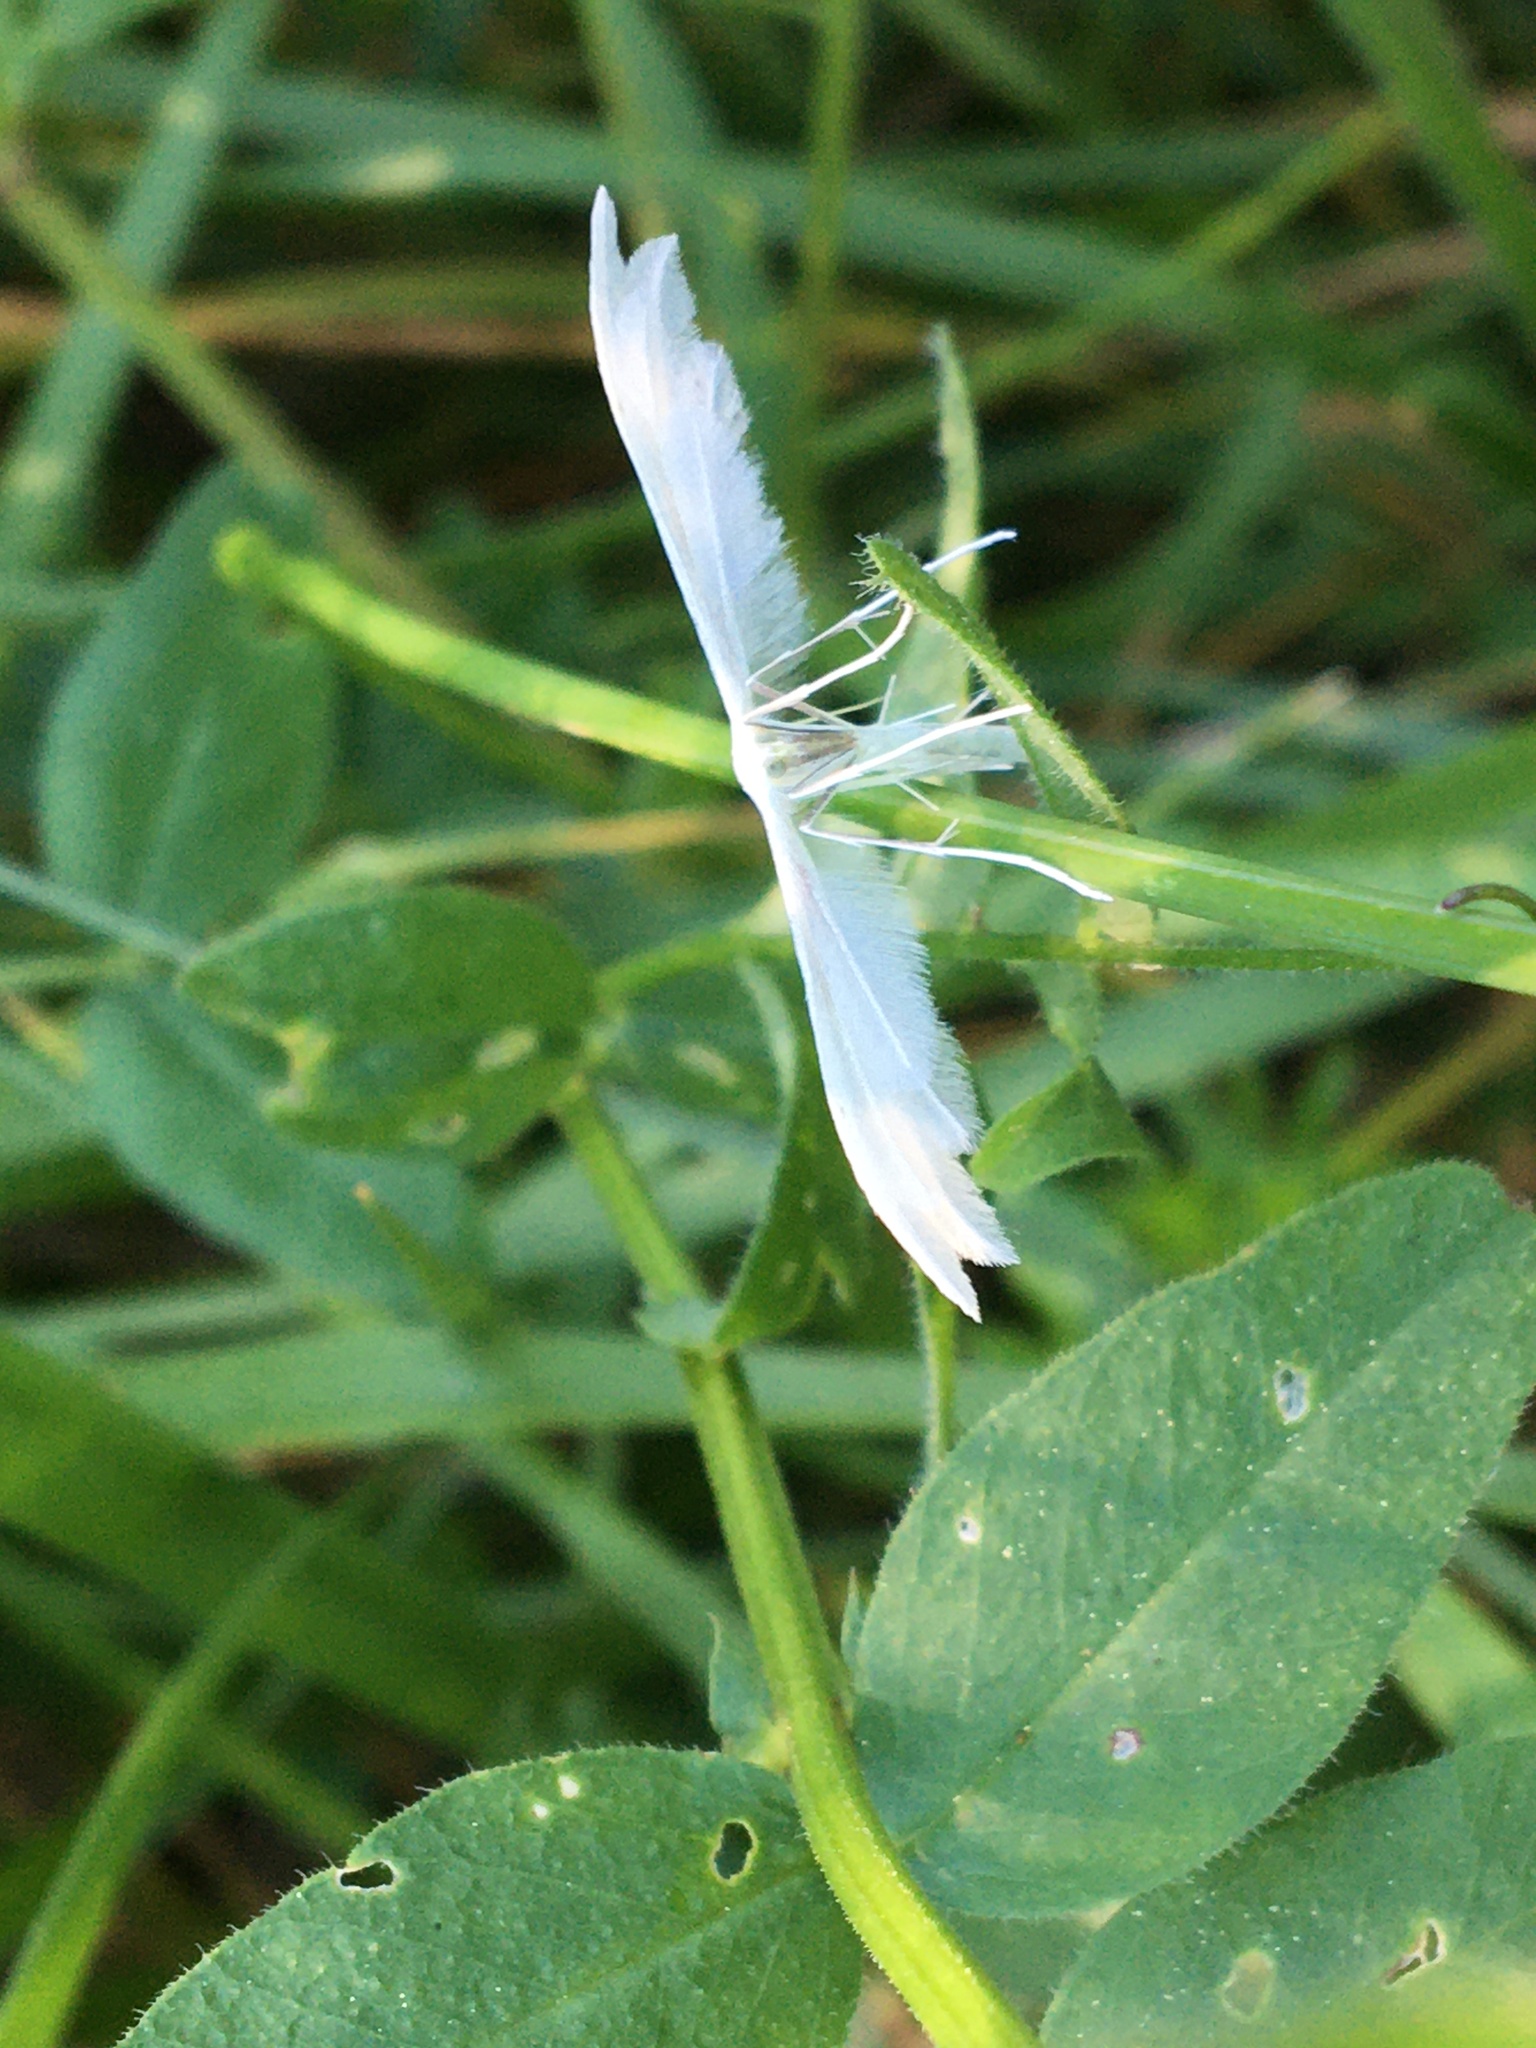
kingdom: Animalia
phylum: Arthropoda
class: Insecta
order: Lepidoptera
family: Pterophoridae
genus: Pterophorus
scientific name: Pterophorus pentadactyla
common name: White plume moth
